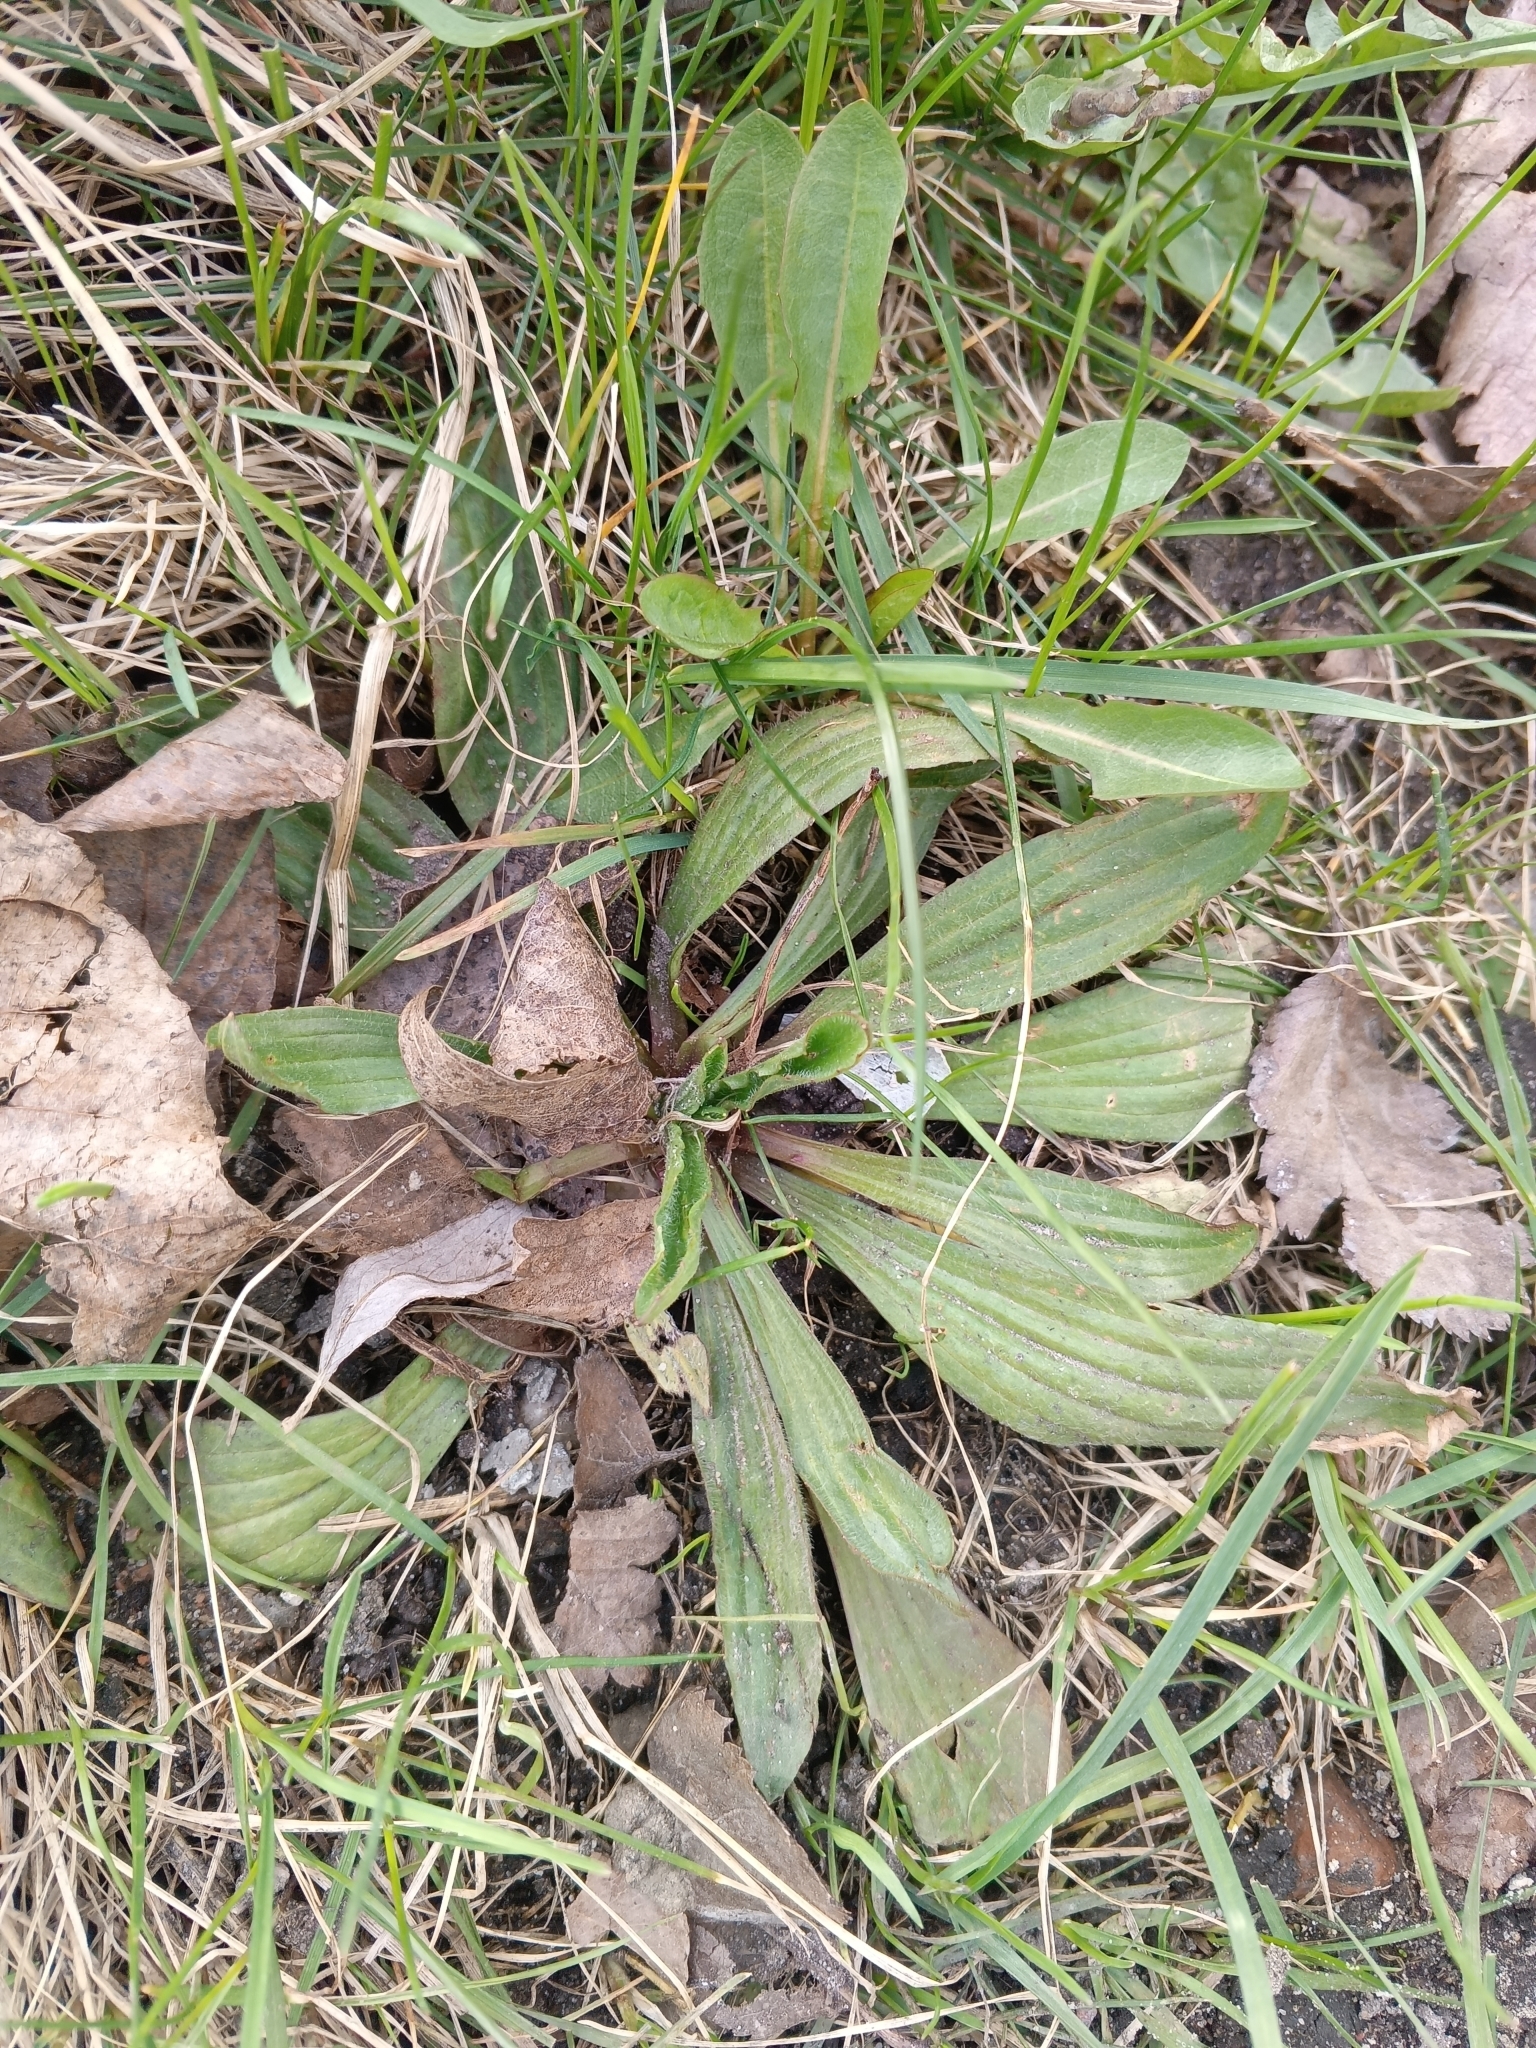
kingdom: Plantae
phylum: Tracheophyta
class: Magnoliopsida
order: Lamiales
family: Plantaginaceae
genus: Plantago
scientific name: Plantago lanceolata
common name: Ribwort plantain
